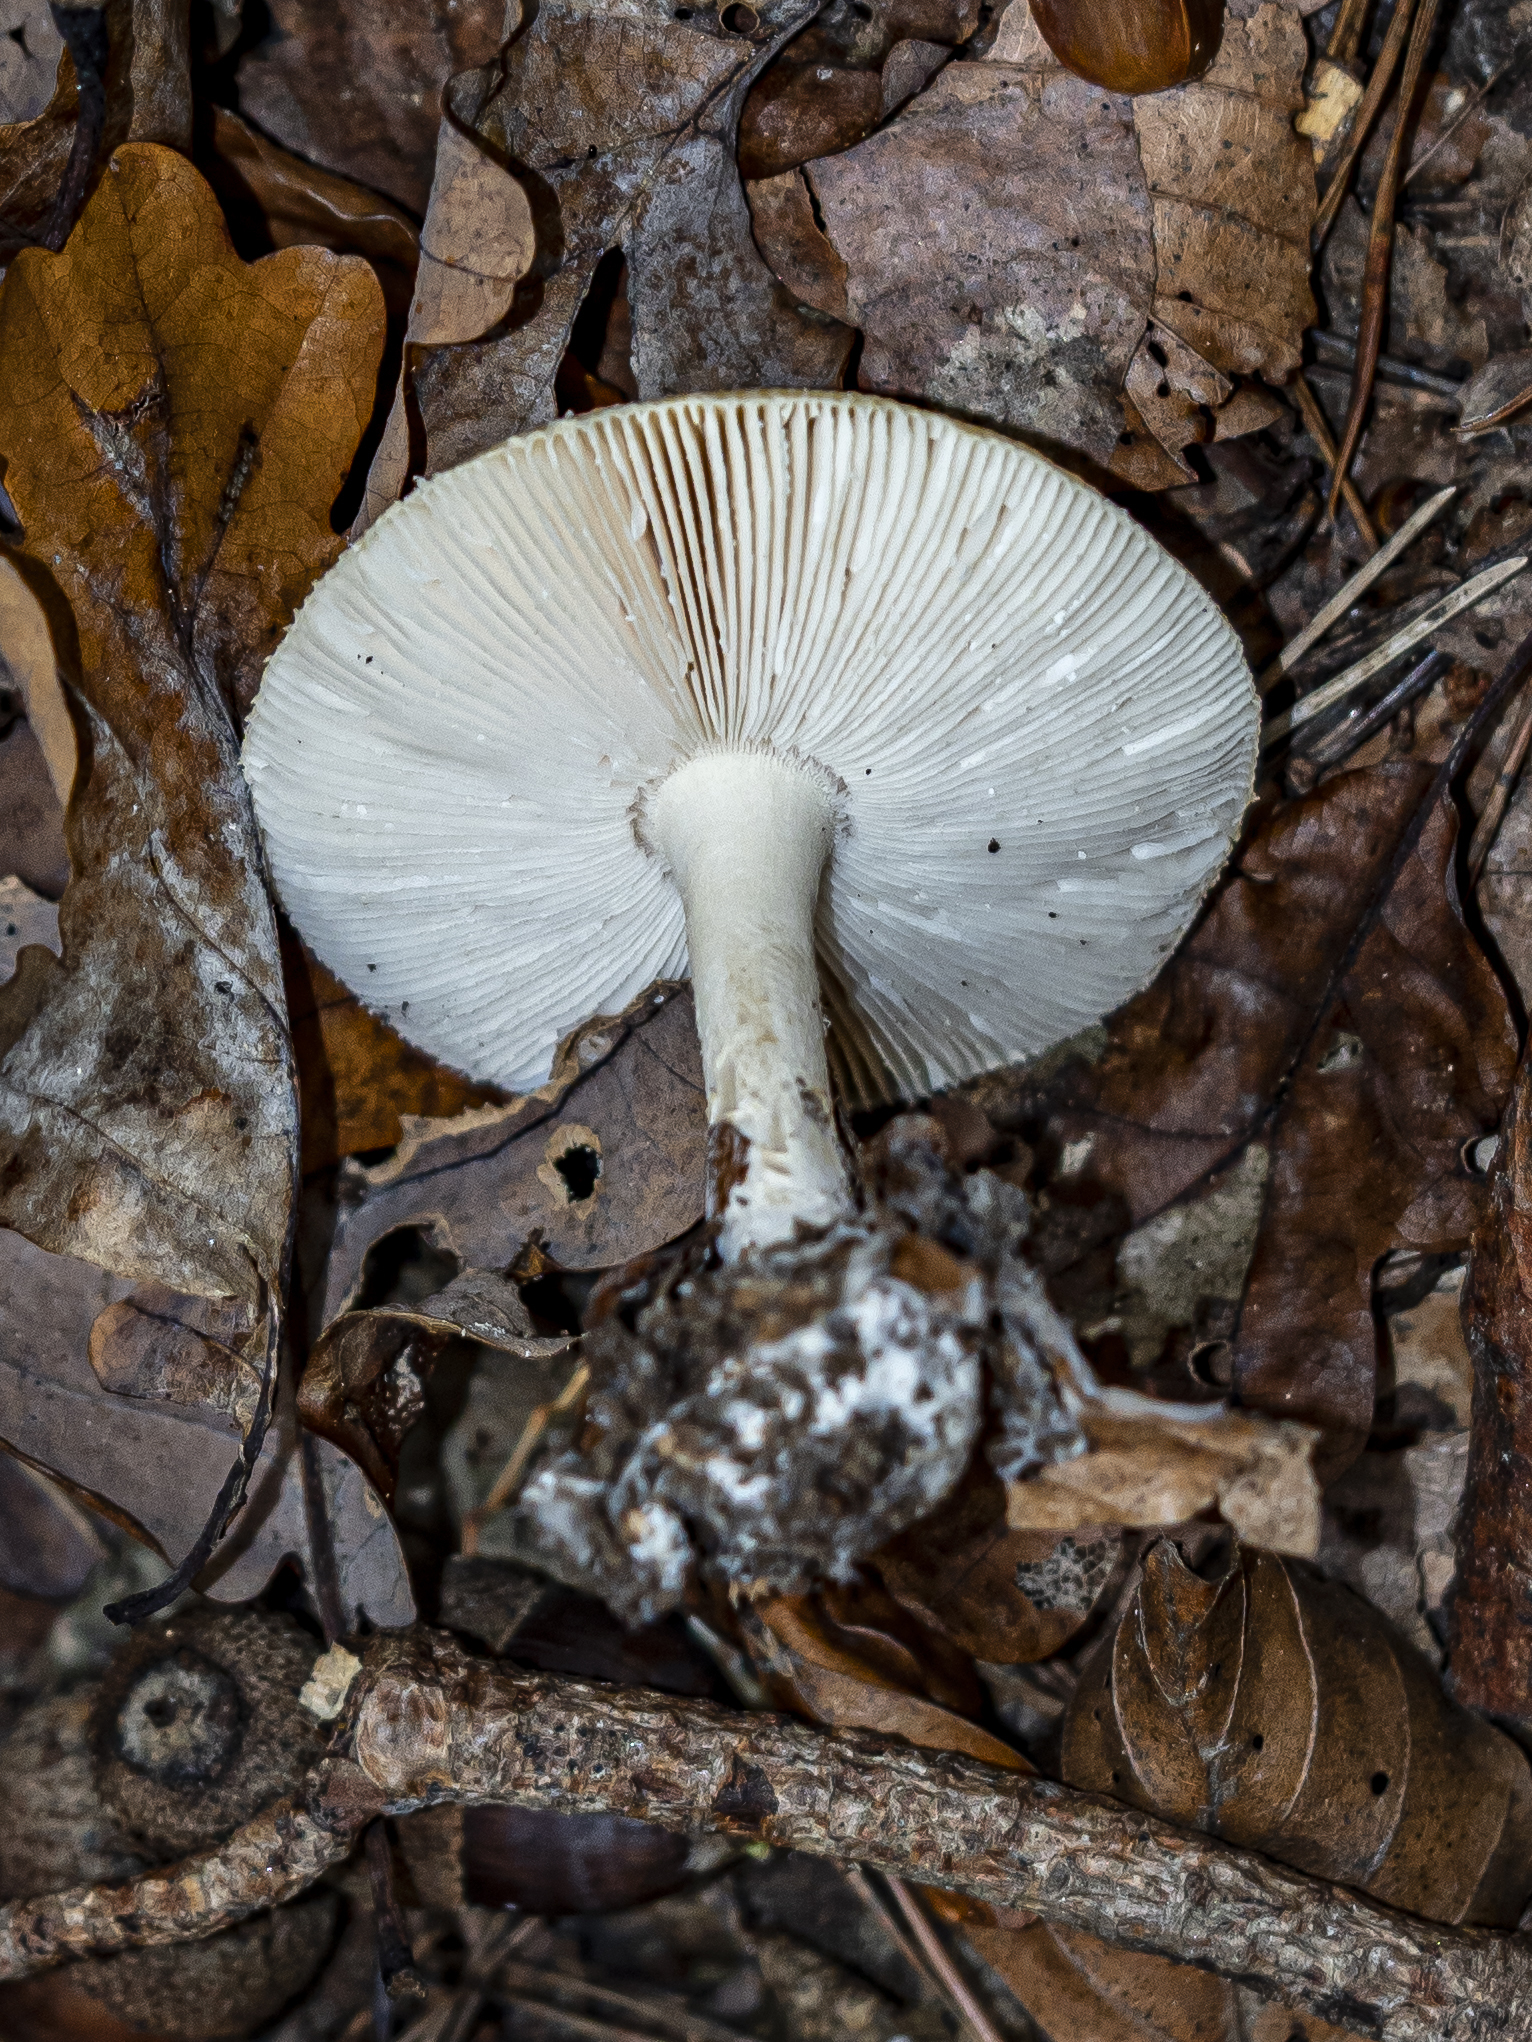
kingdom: Fungi
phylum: Basidiomycota
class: Agaricomycetes
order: Agaricales
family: Amanitaceae
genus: Amanita
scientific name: Amanita gemmata
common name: Jewelled amanita
